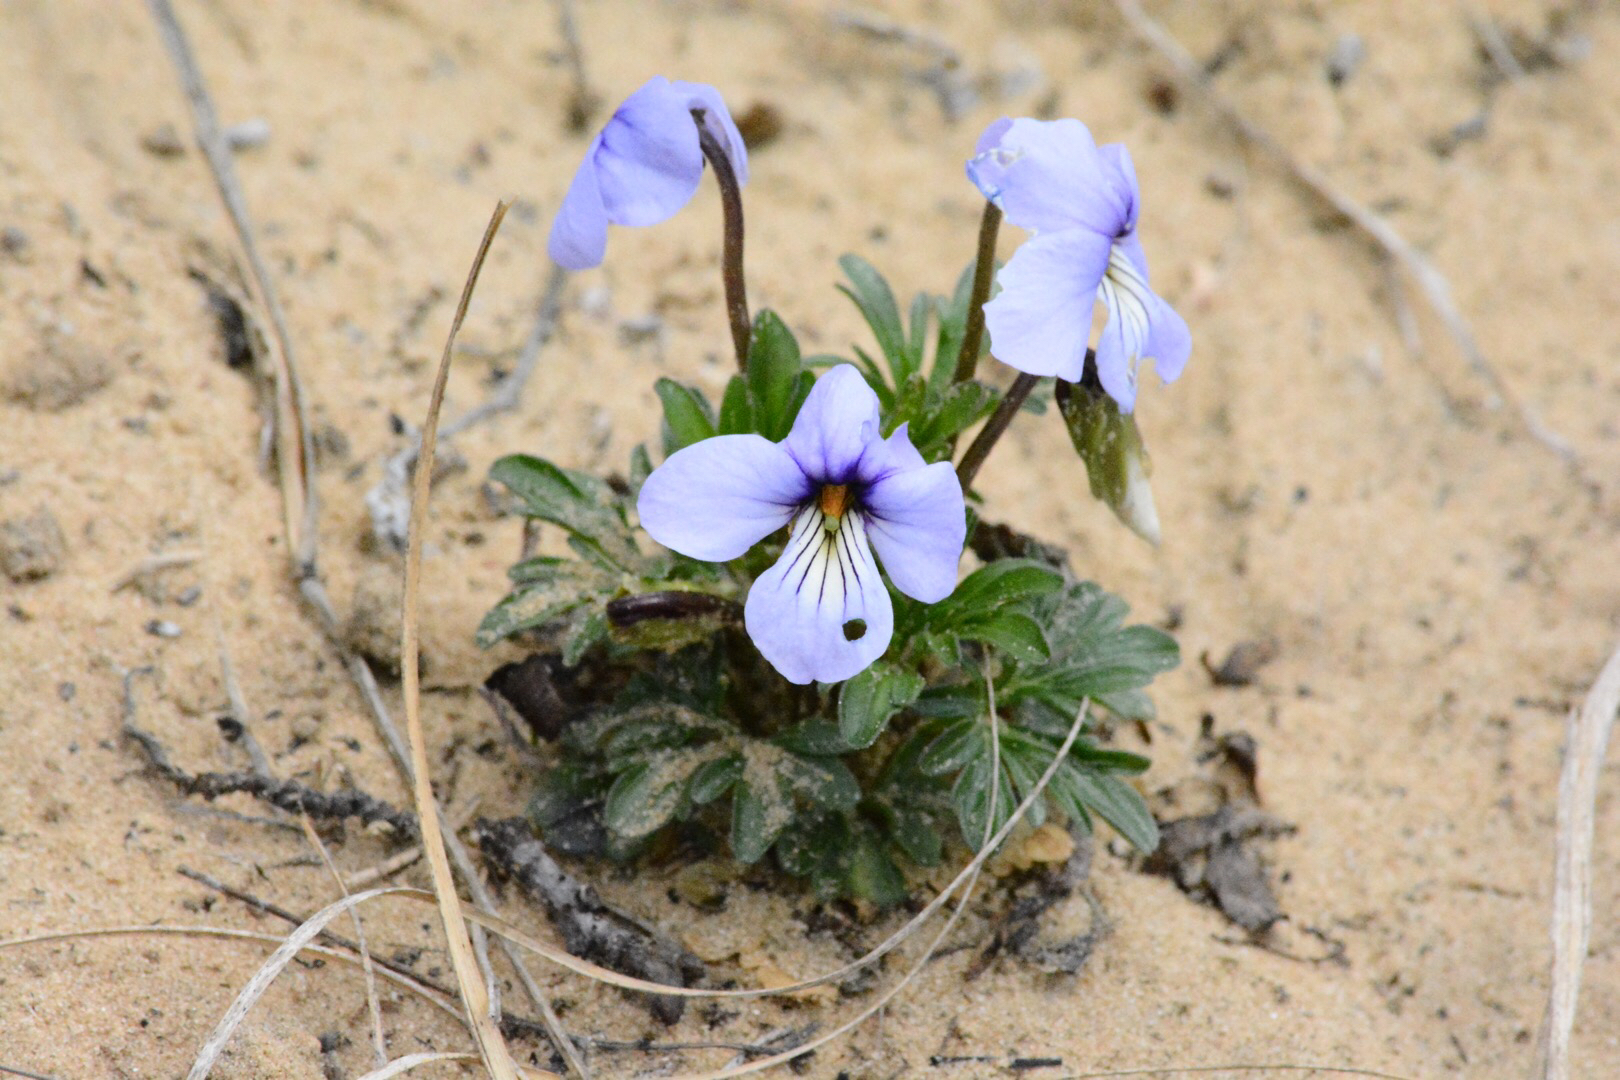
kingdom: Plantae
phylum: Tracheophyta
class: Magnoliopsida
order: Malpighiales
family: Violaceae
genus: Viola
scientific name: Viola pedata
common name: Pansy violet
